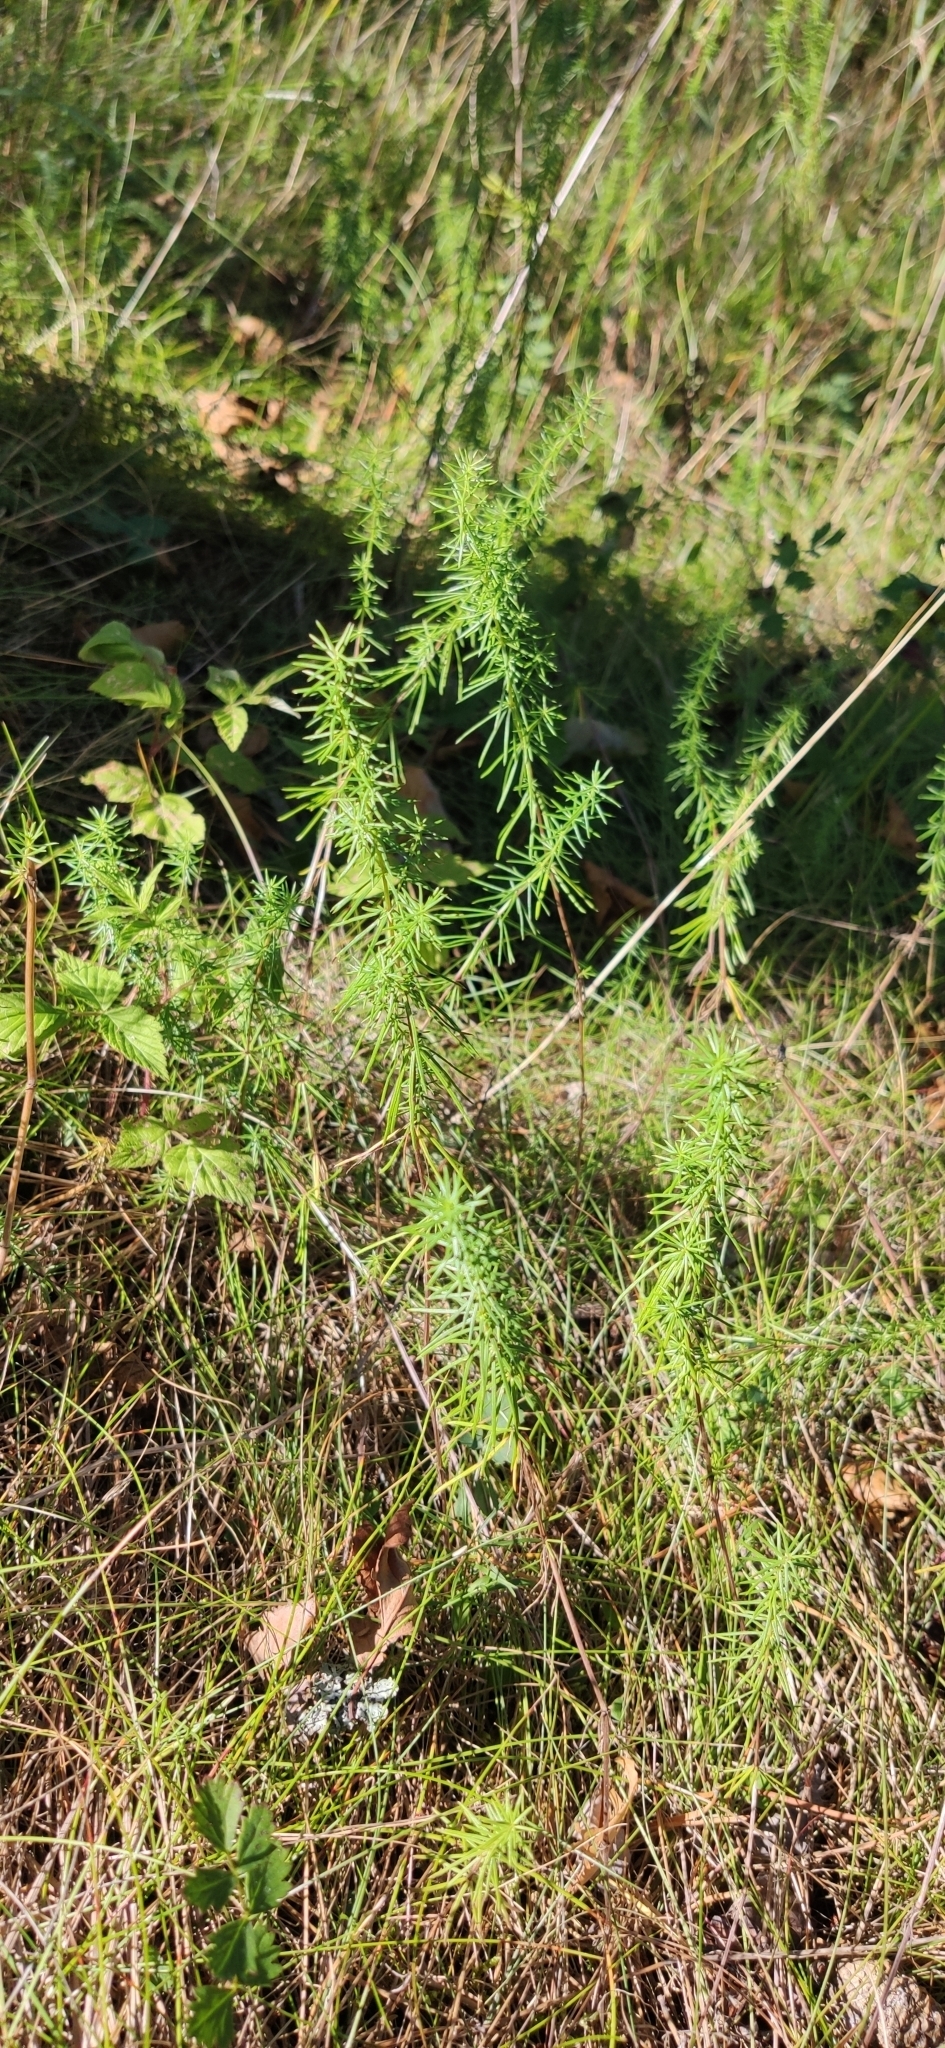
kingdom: Plantae
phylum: Tracheophyta
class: Magnoliopsida
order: Gentianales
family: Rubiaceae
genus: Galium
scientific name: Galium verum
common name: Lady's bedstraw
